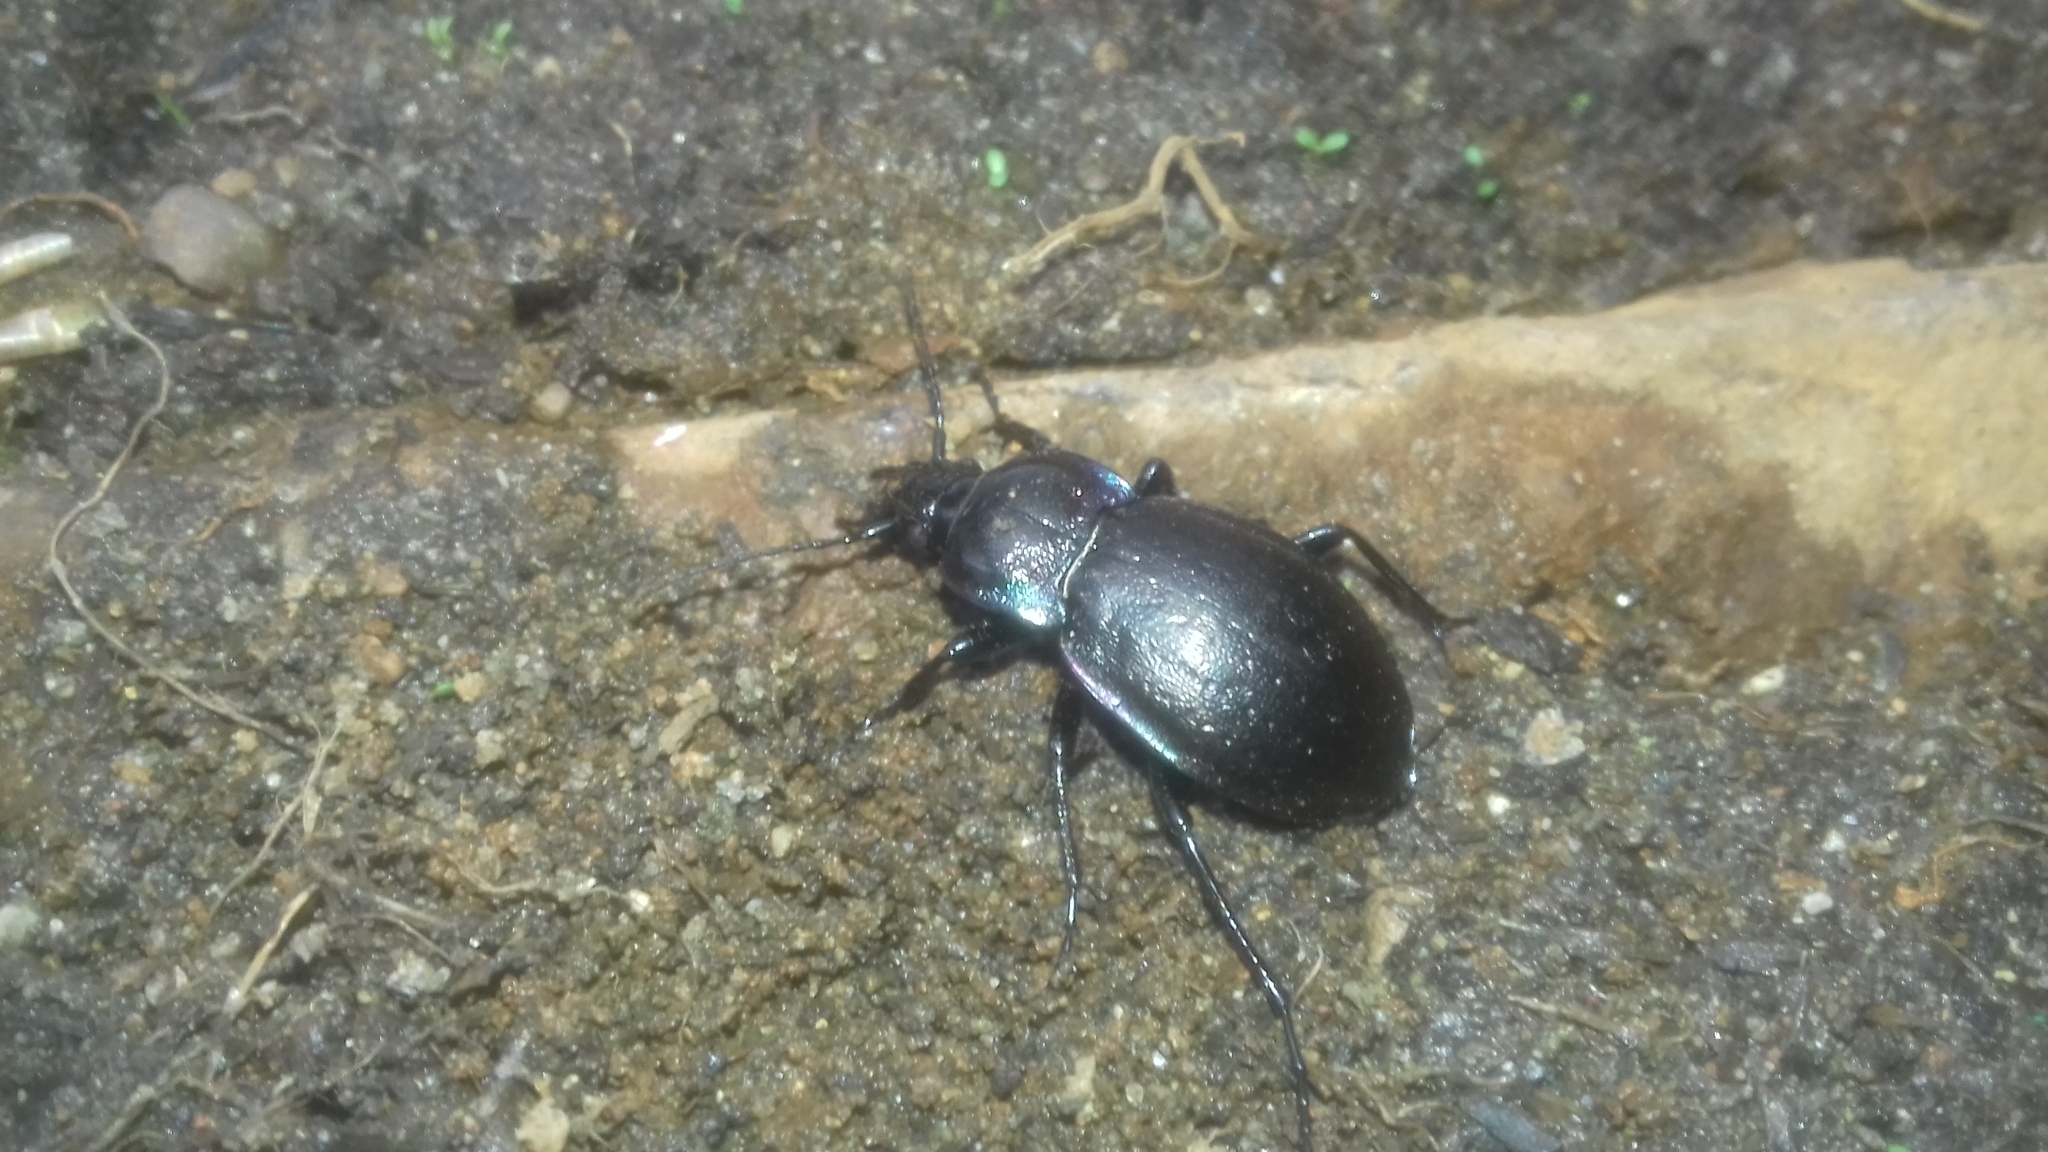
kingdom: Animalia
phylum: Arthropoda
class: Insecta
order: Coleoptera
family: Carabidae
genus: Carabus
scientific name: Carabus nemoralis
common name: European ground beetle
